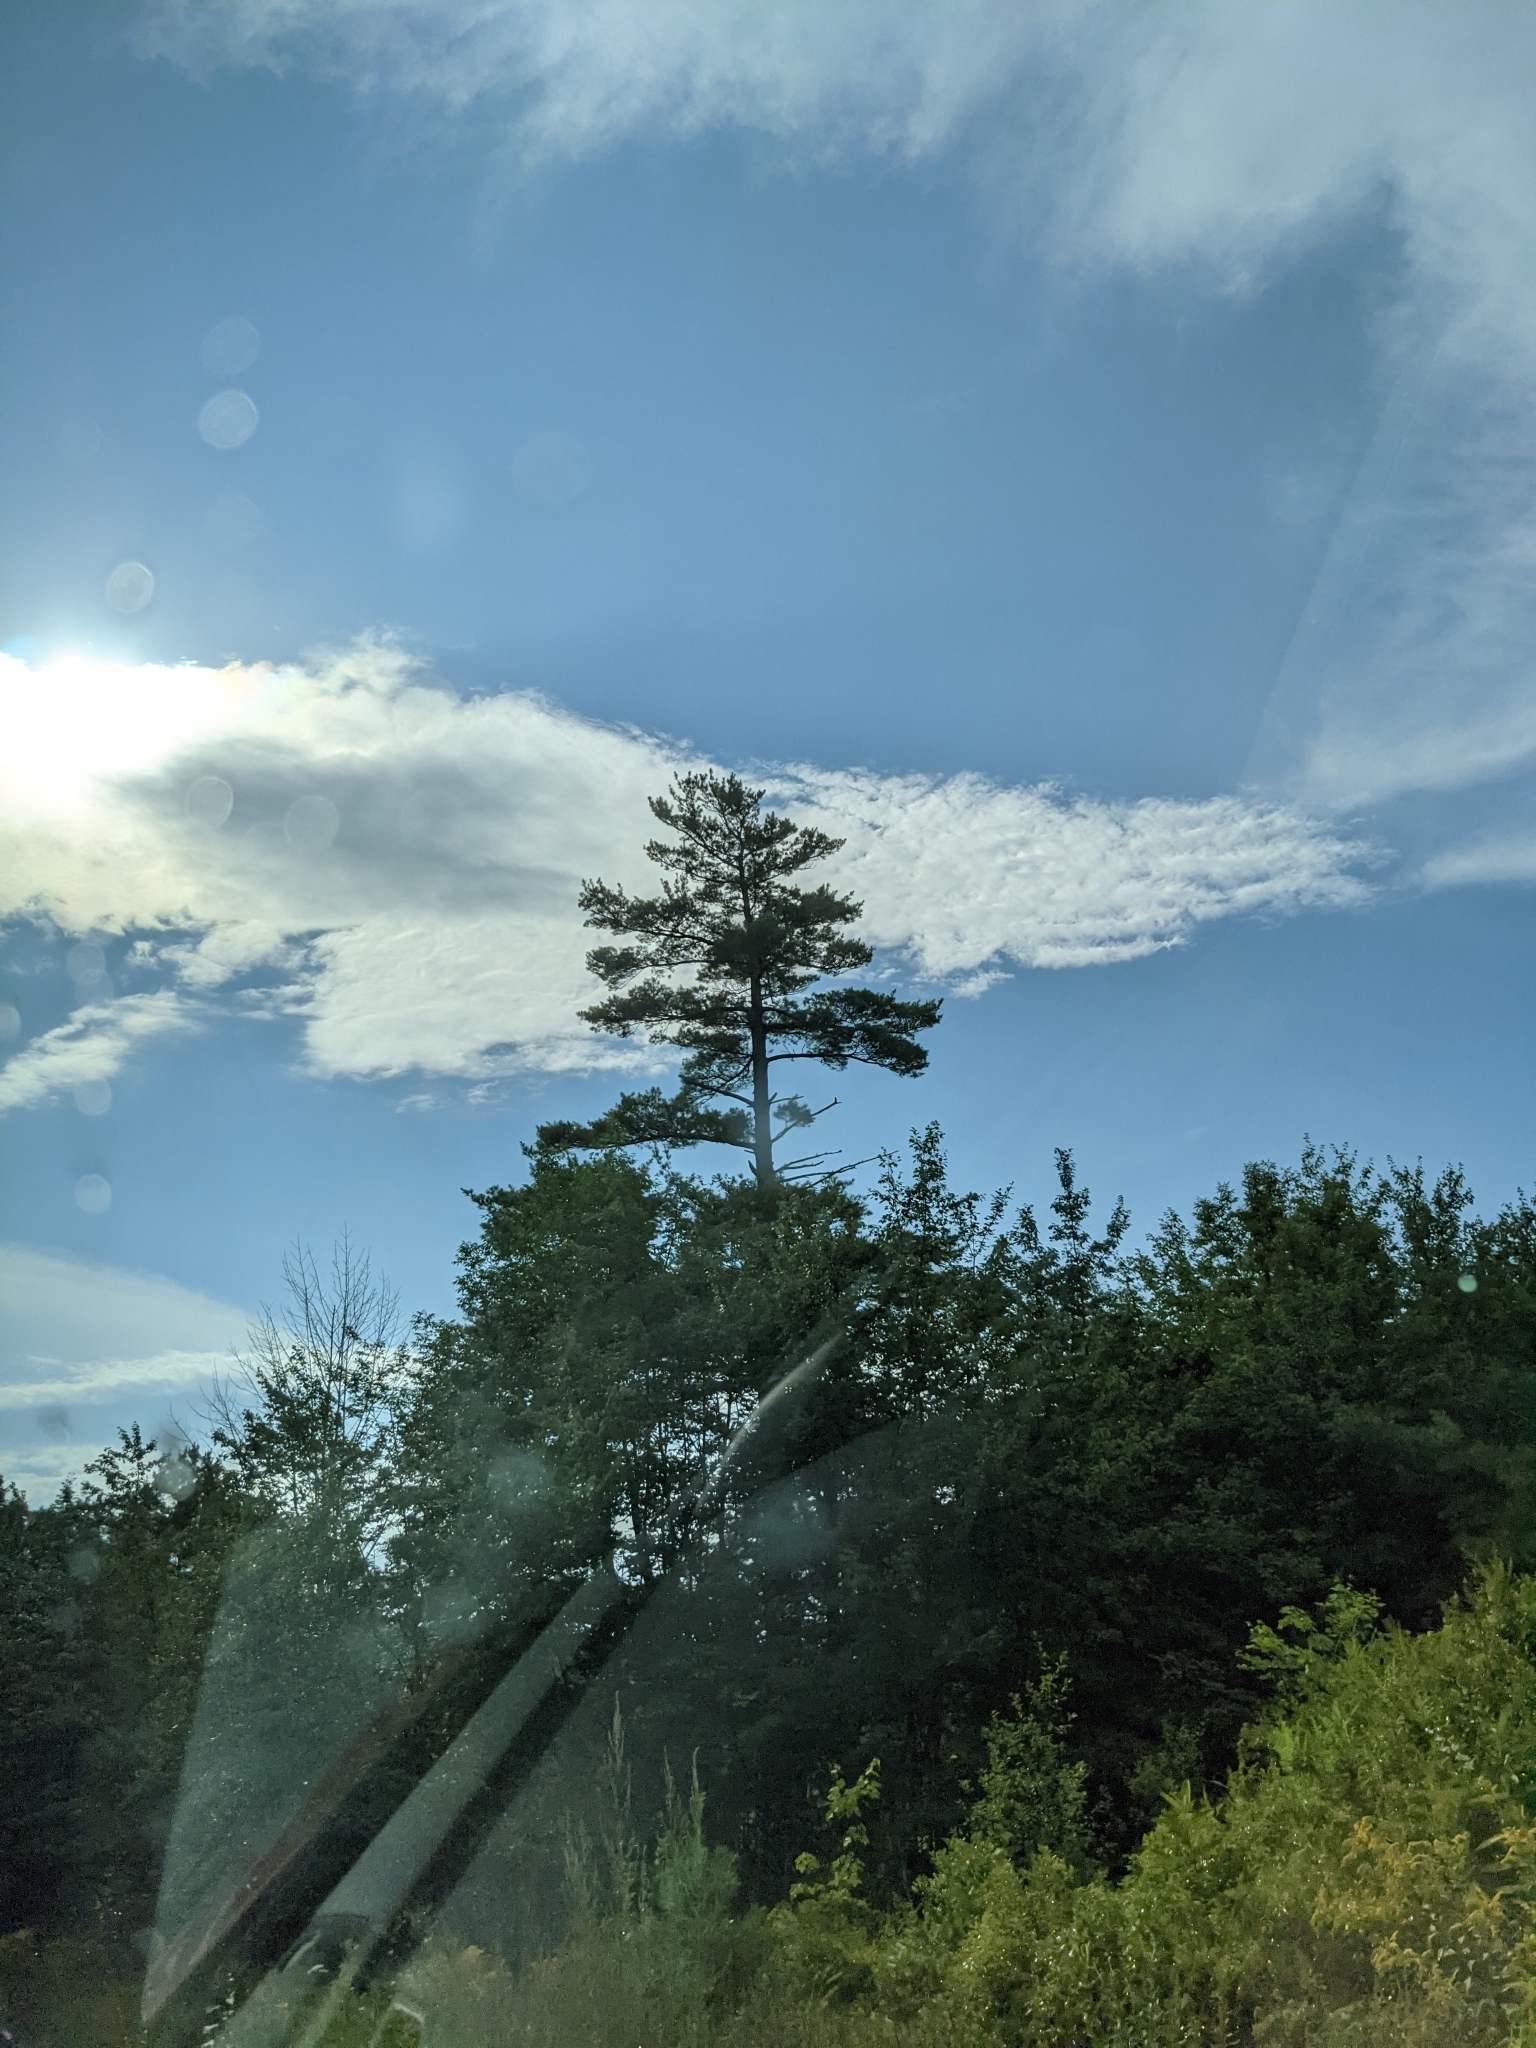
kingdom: Plantae
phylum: Tracheophyta
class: Pinopsida
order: Pinales
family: Pinaceae
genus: Pinus
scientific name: Pinus strobus
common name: Weymouth pine
